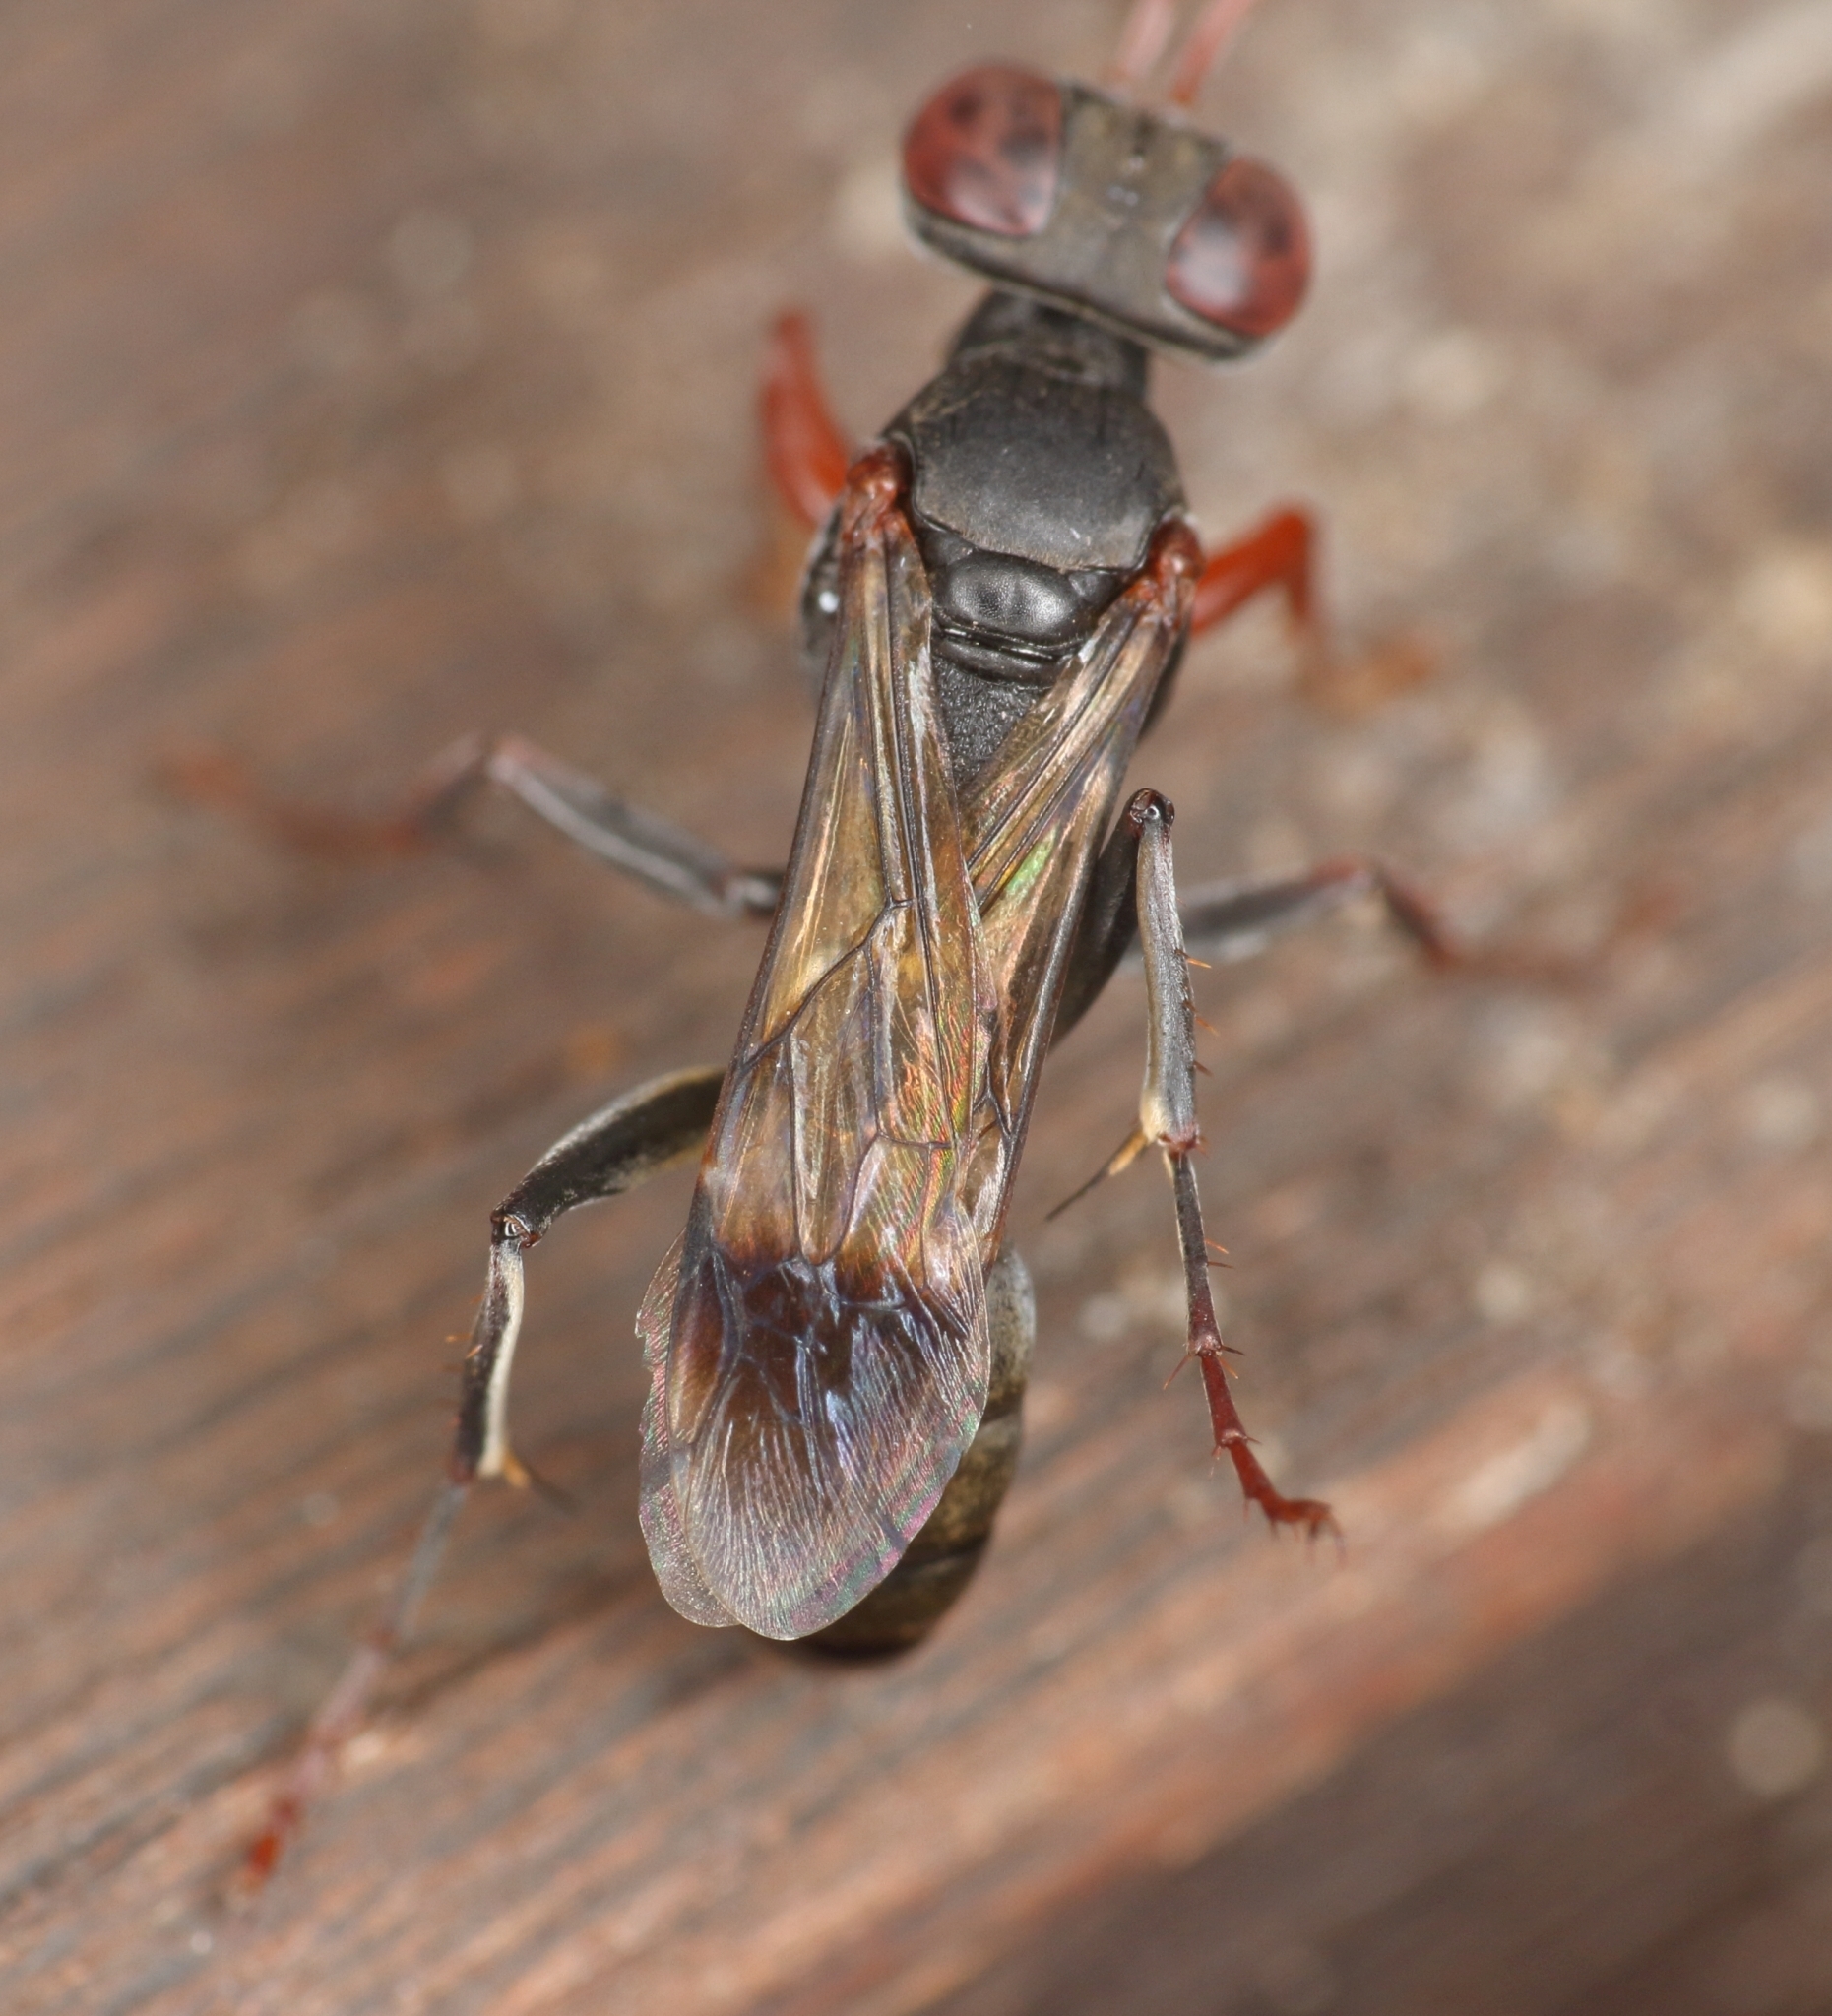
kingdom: Animalia
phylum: Arthropoda
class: Insecta
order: Hymenoptera
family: Crabronidae
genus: Dicranorhina
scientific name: Dicranorhina kohli
